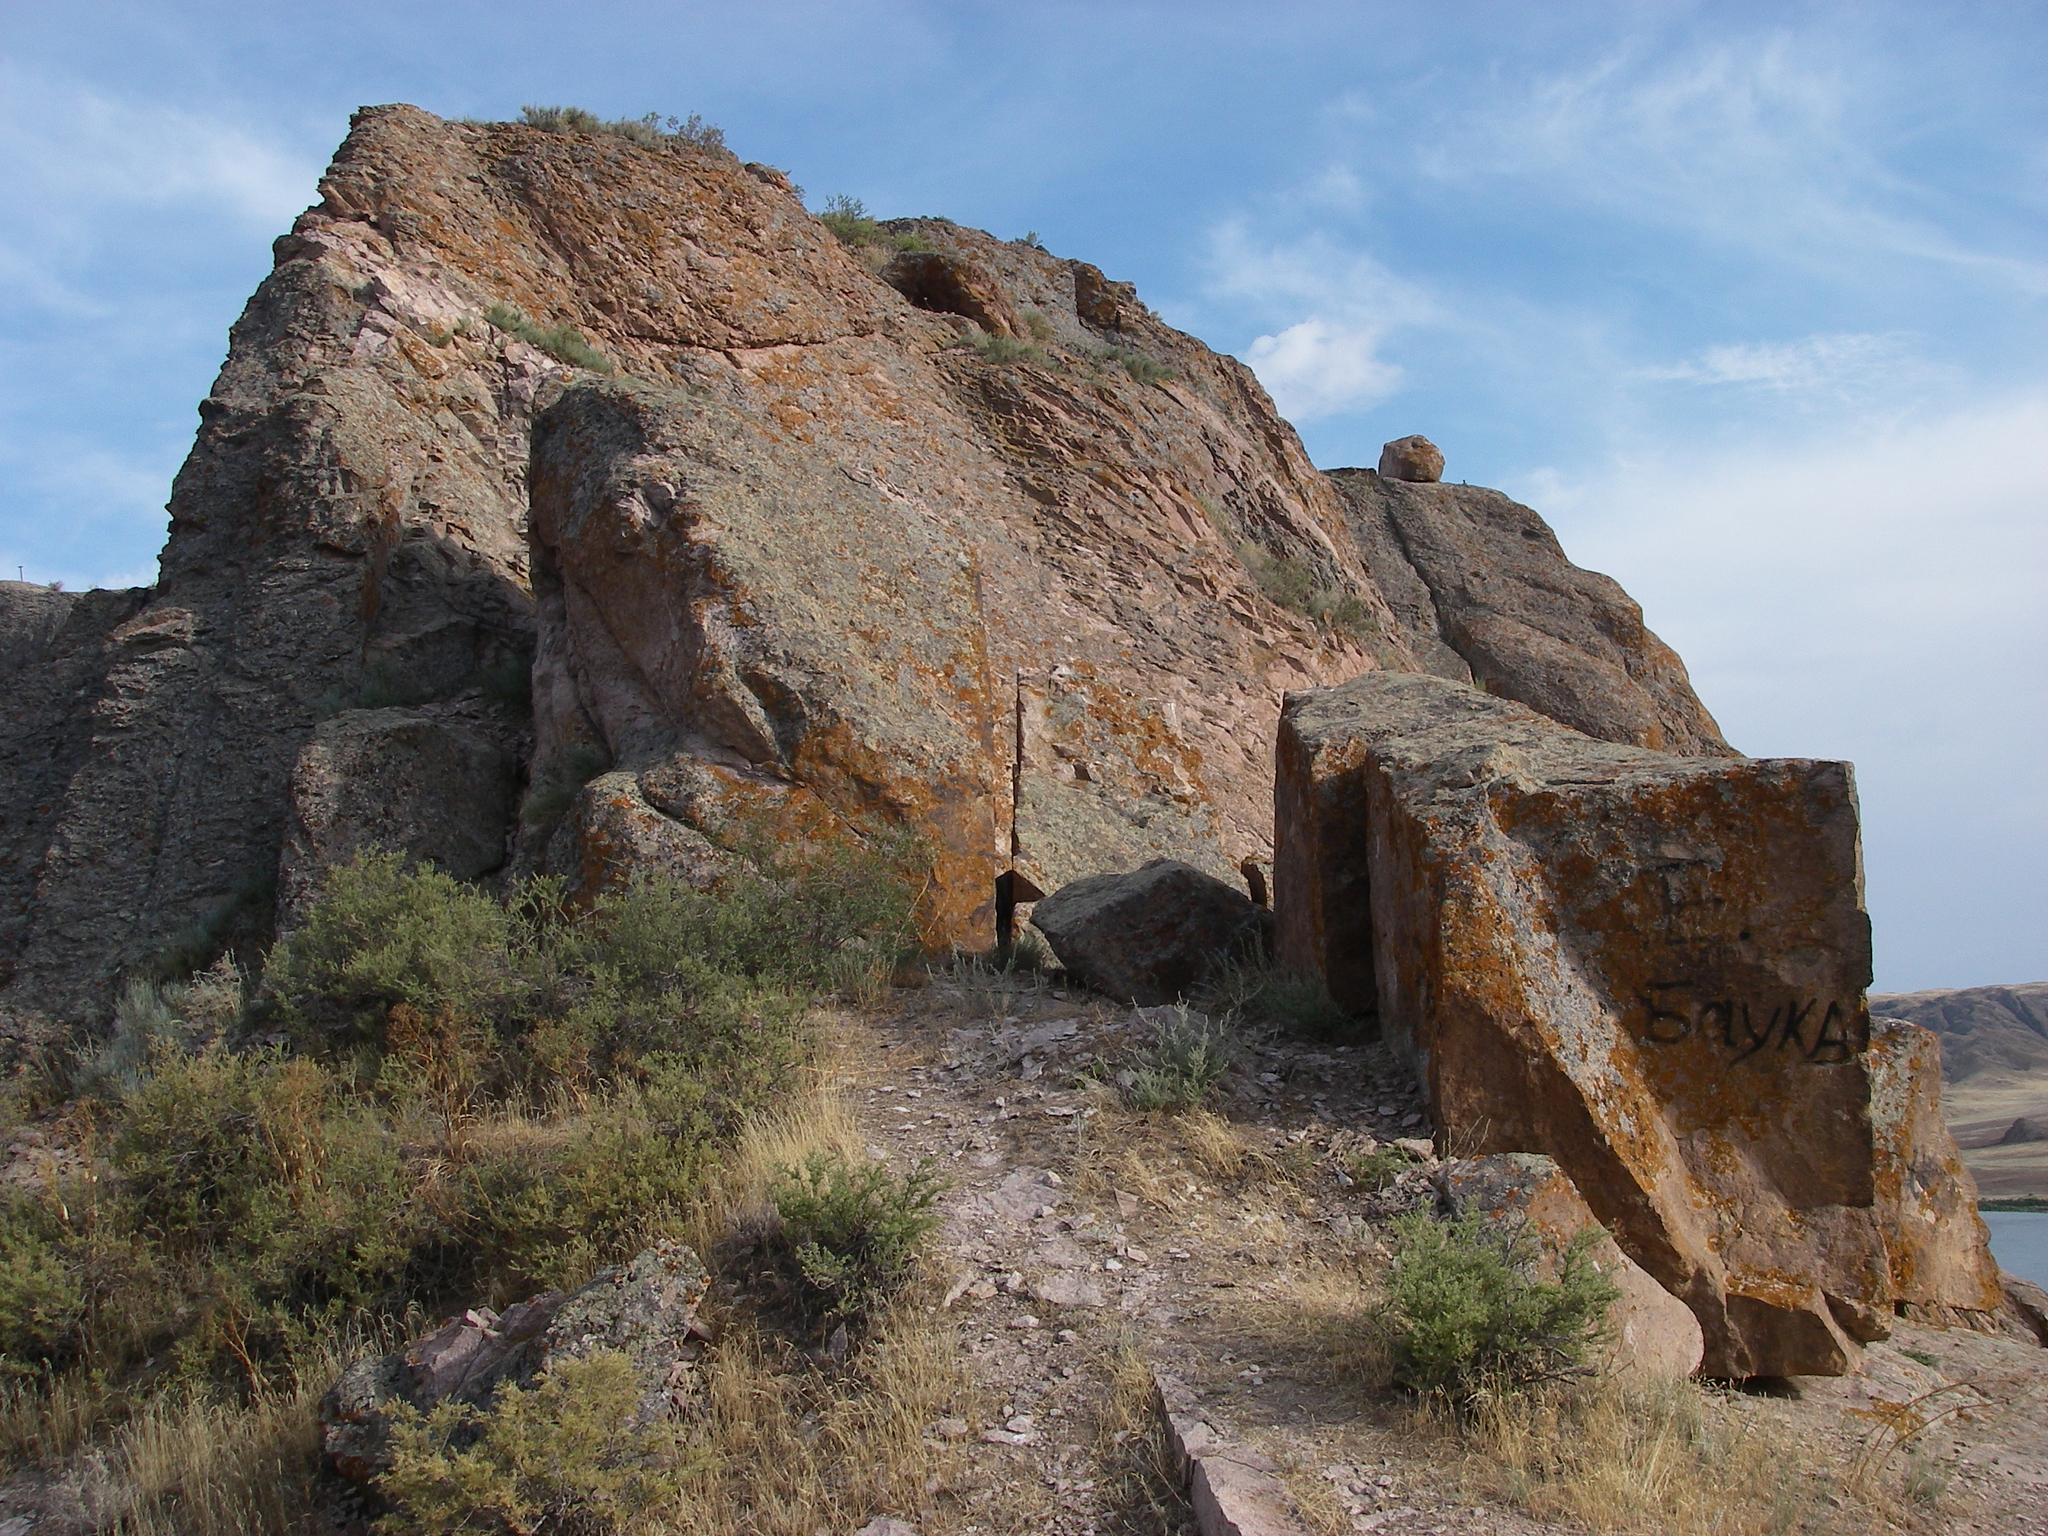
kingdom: Plantae
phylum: Tracheophyta
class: Magnoliopsida
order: Rosales
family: Rosaceae
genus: Spiraea
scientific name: Spiraea hypericifolia
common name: Iberian spirea
